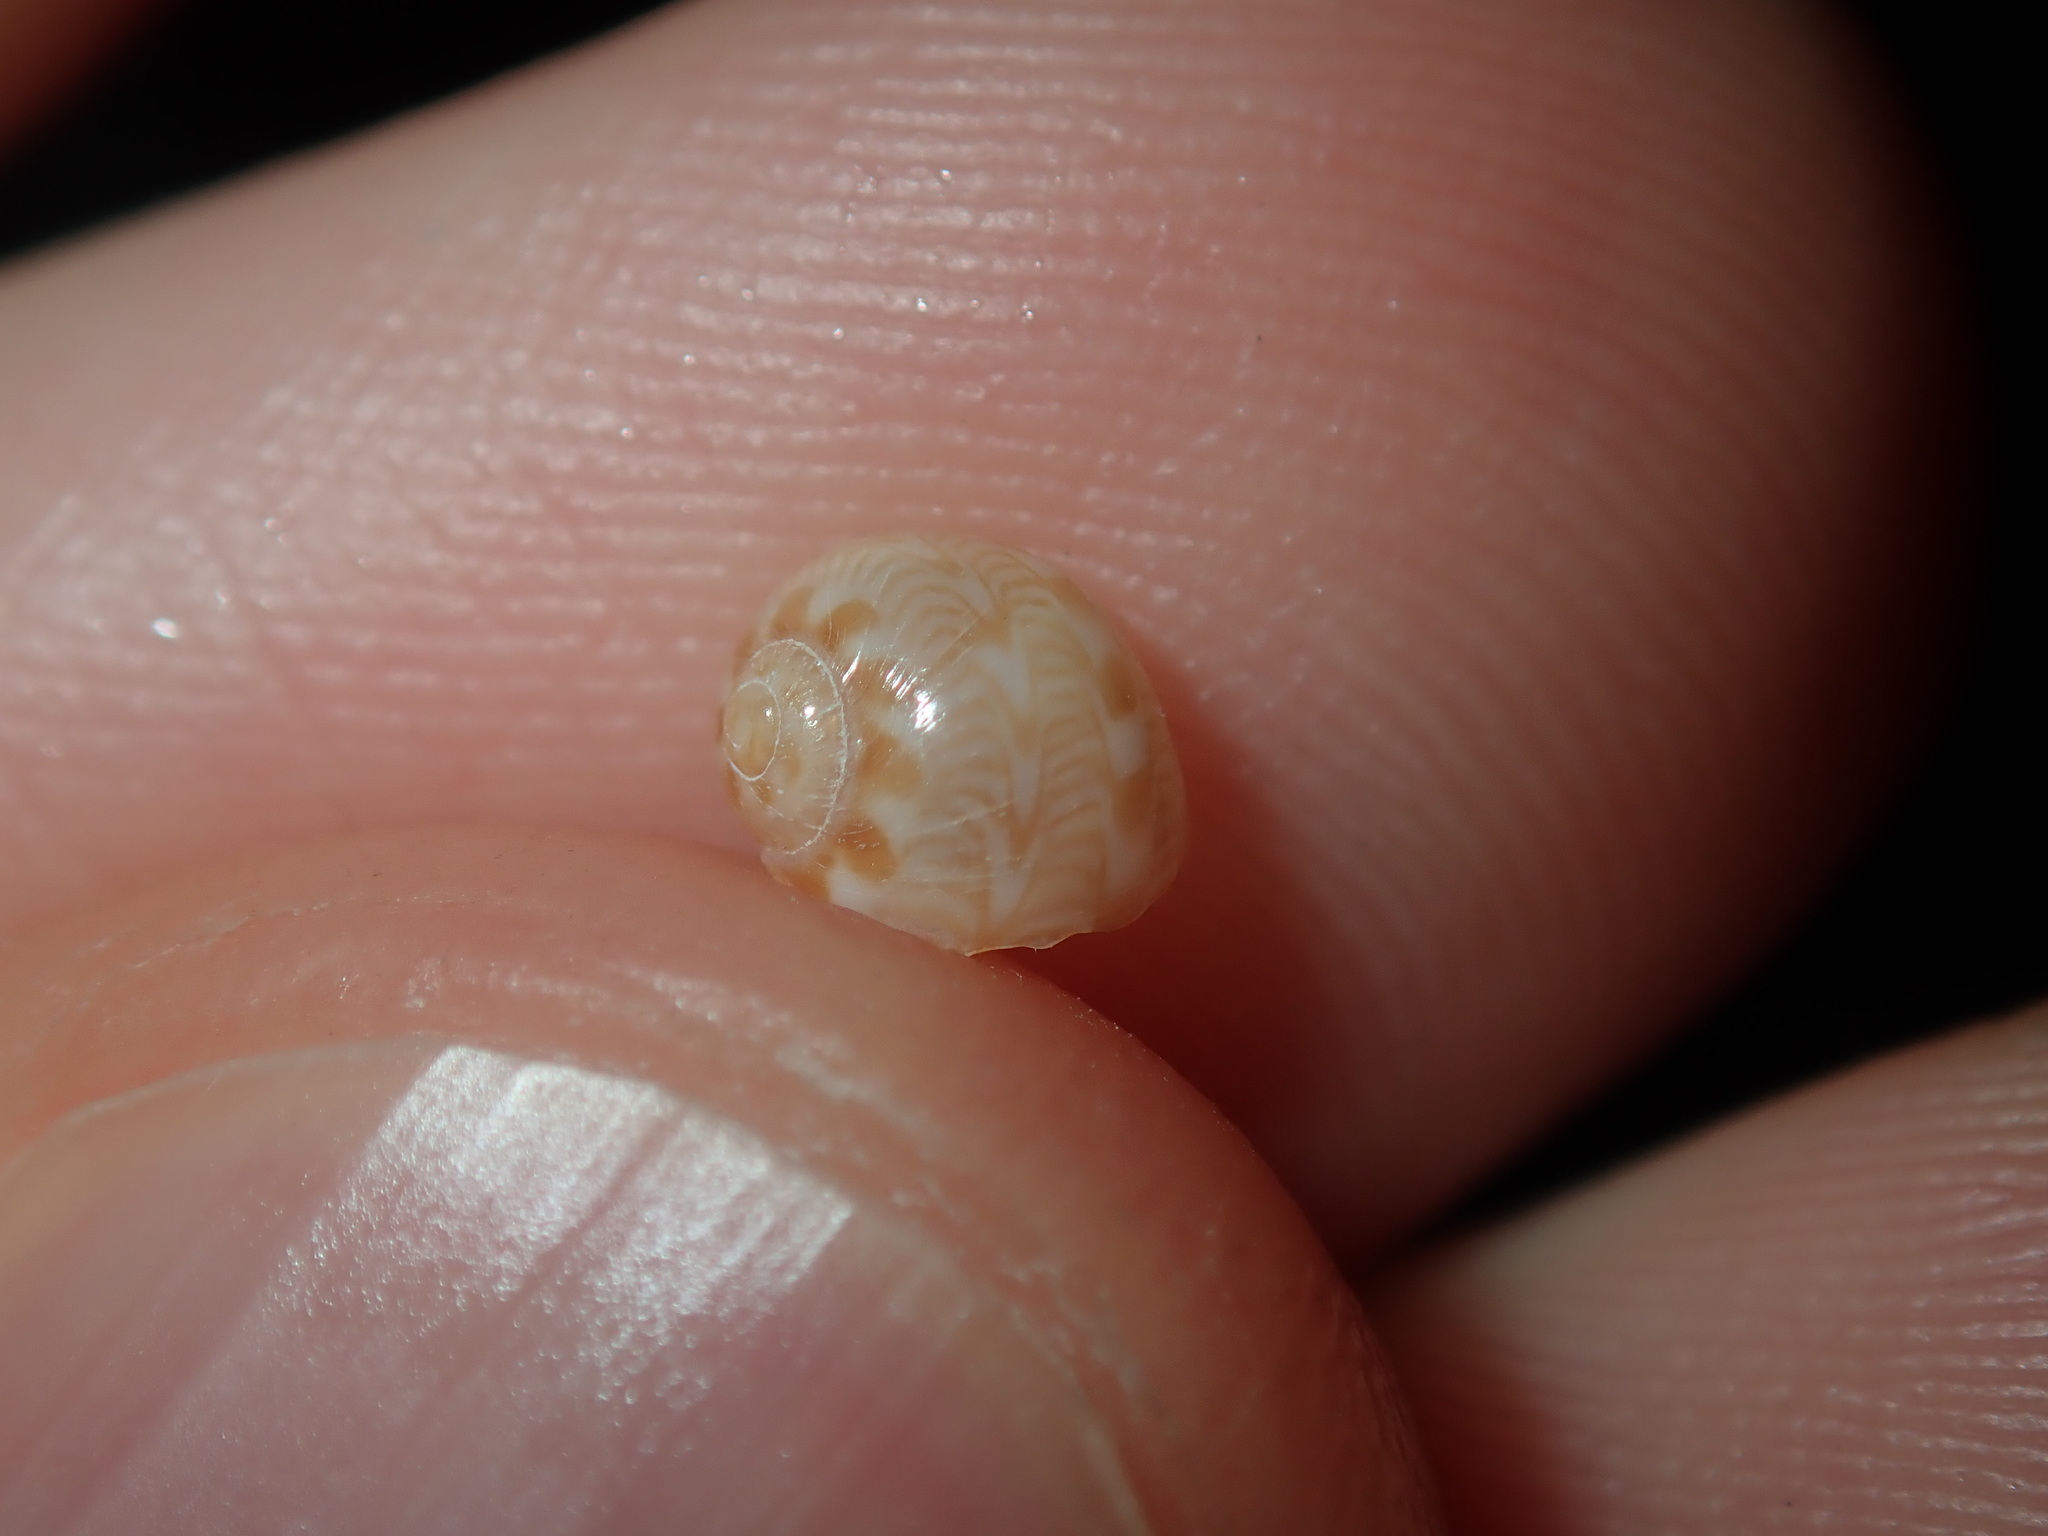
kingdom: Animalia
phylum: Mollusca
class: Gastropoda
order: Littorinimorpha
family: Naticidae
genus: Tanea
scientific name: Tanea sagittata
